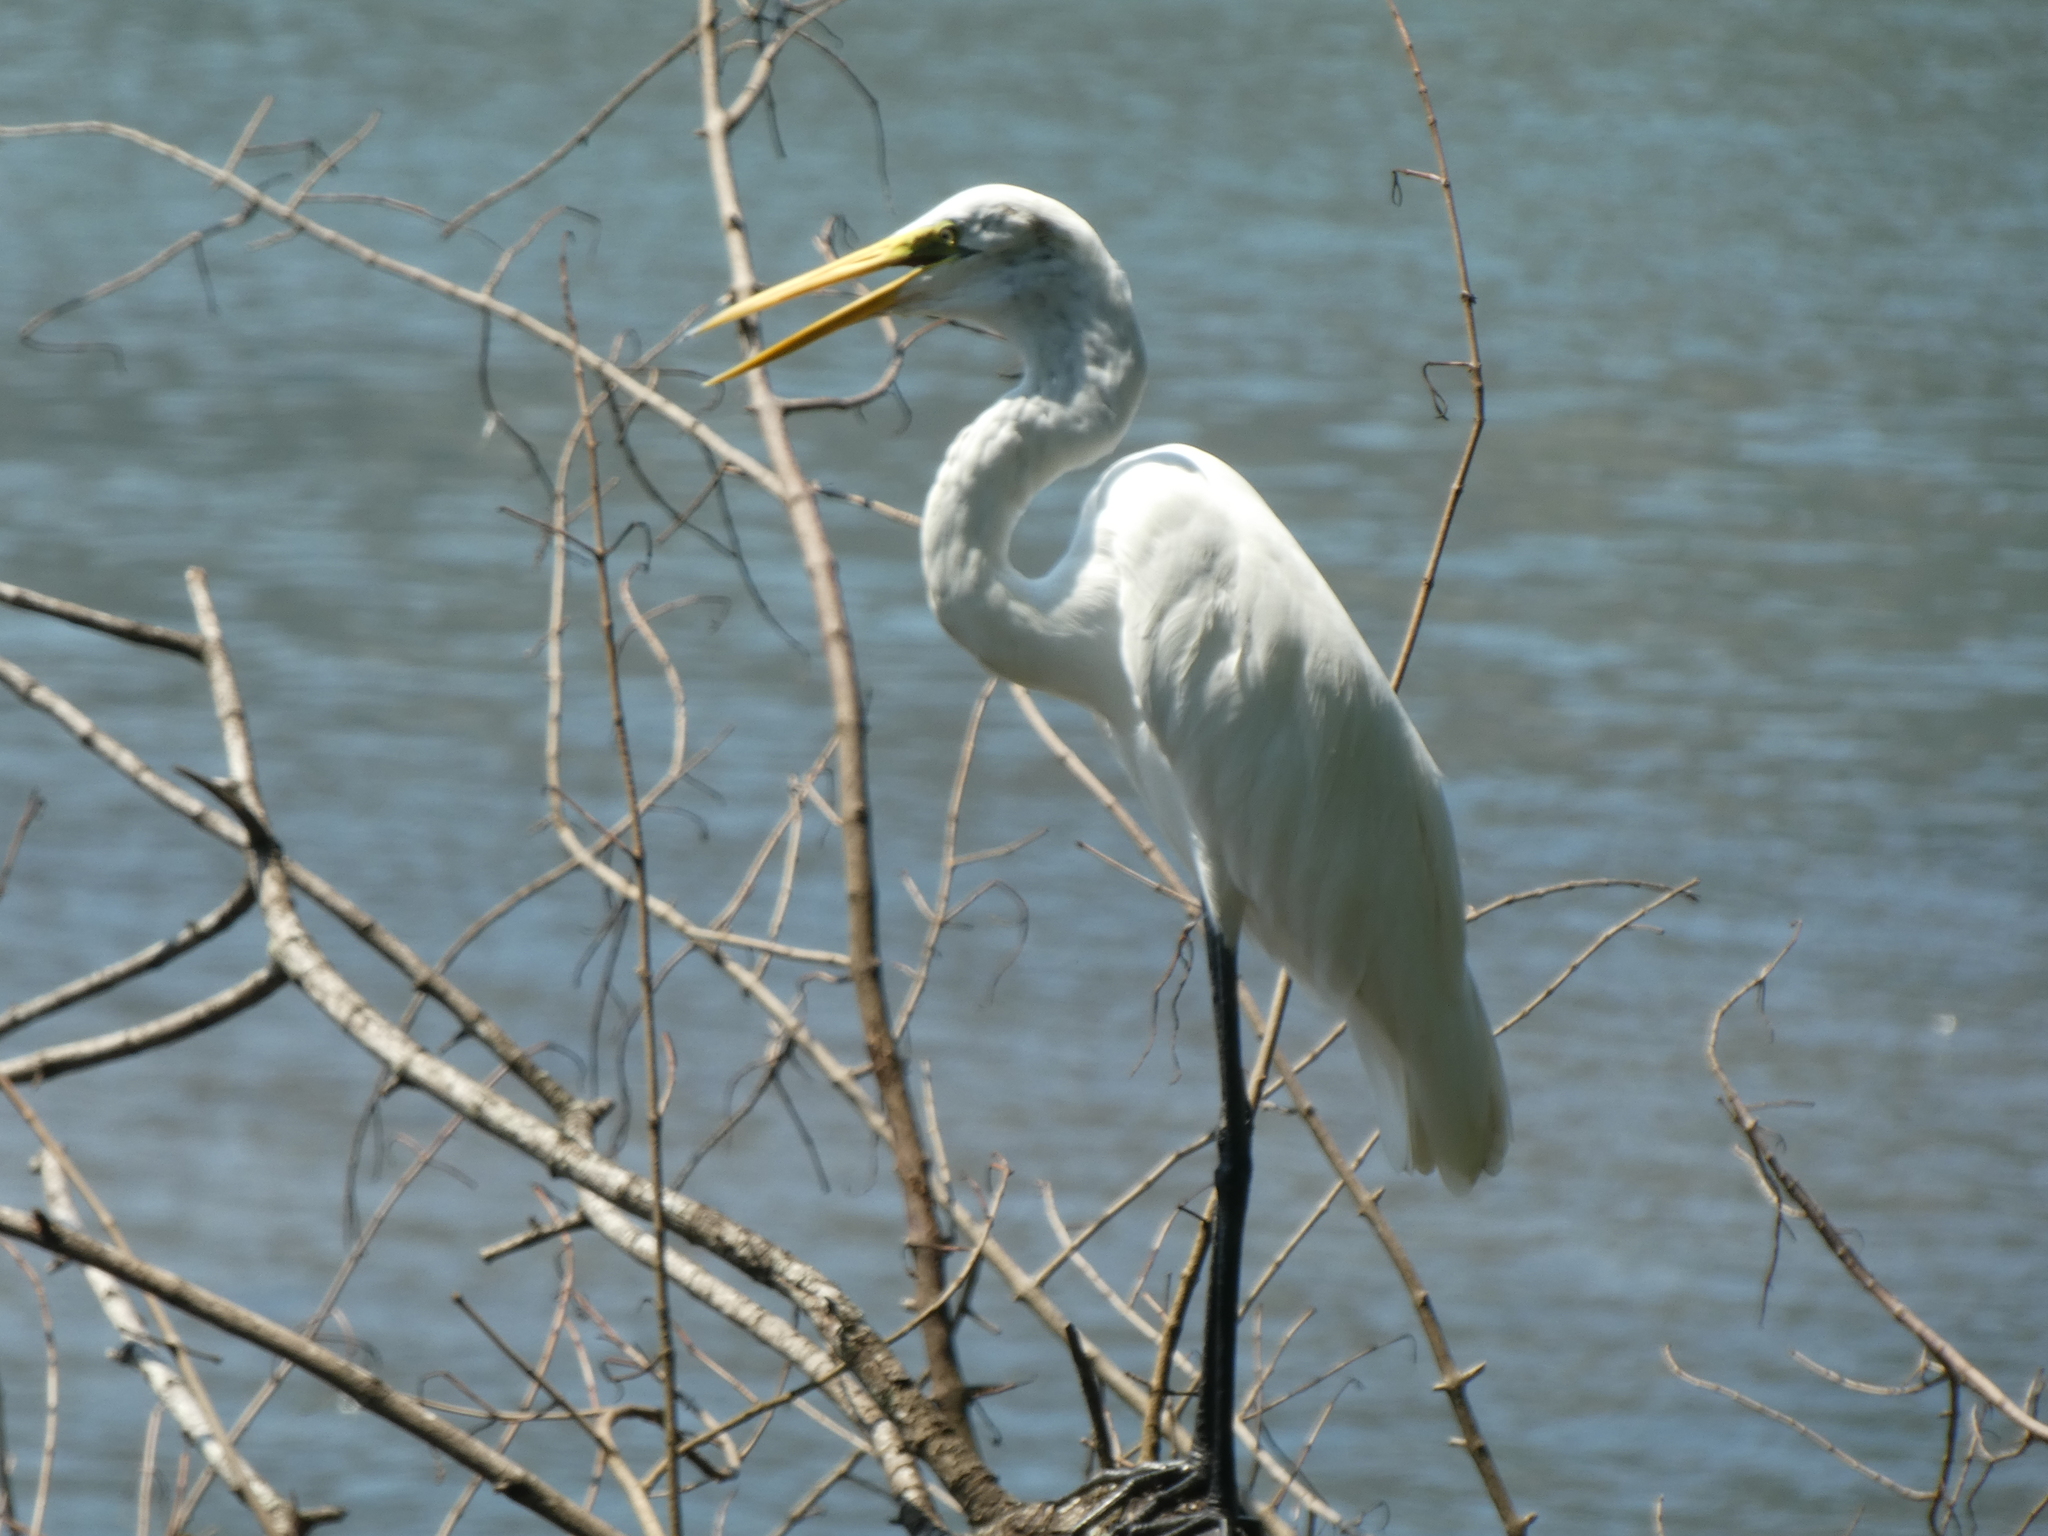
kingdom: Animalia
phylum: Chordata
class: Aves
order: Pelecaniformes
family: Ardeidae
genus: Ardea
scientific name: Ardea alba
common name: Great egret
